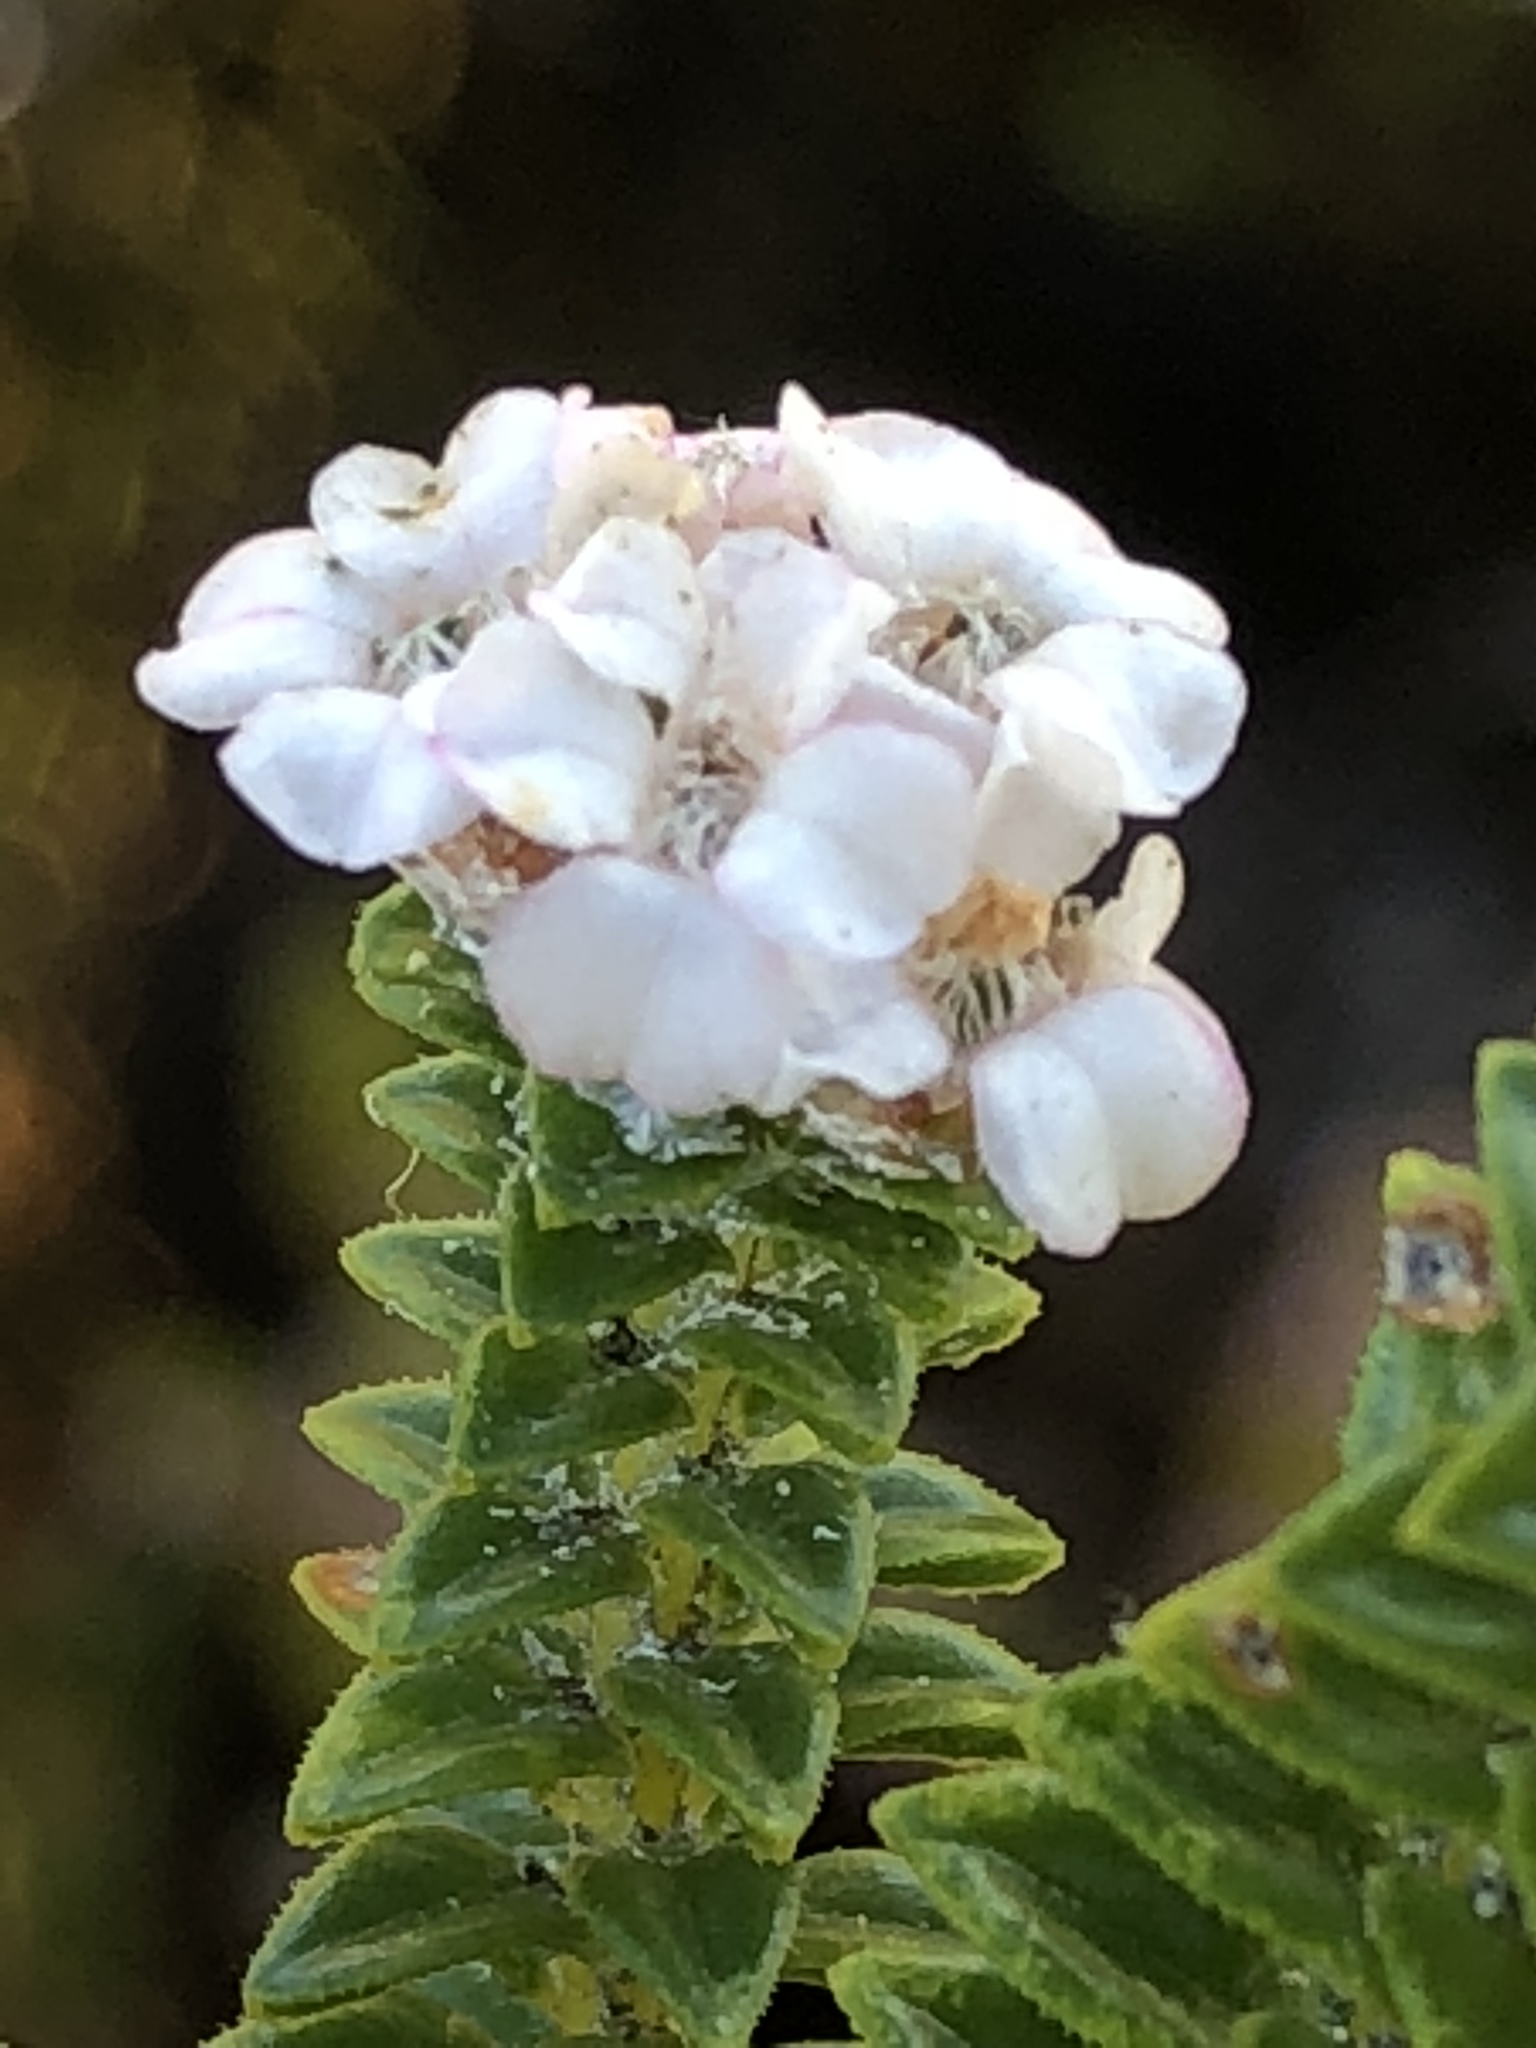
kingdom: Plantae
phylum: Tracheophyta
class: Magnoliopsida
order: Sapindales
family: Rutaceae
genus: Euchaetis
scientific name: Euchaetis laevigata
